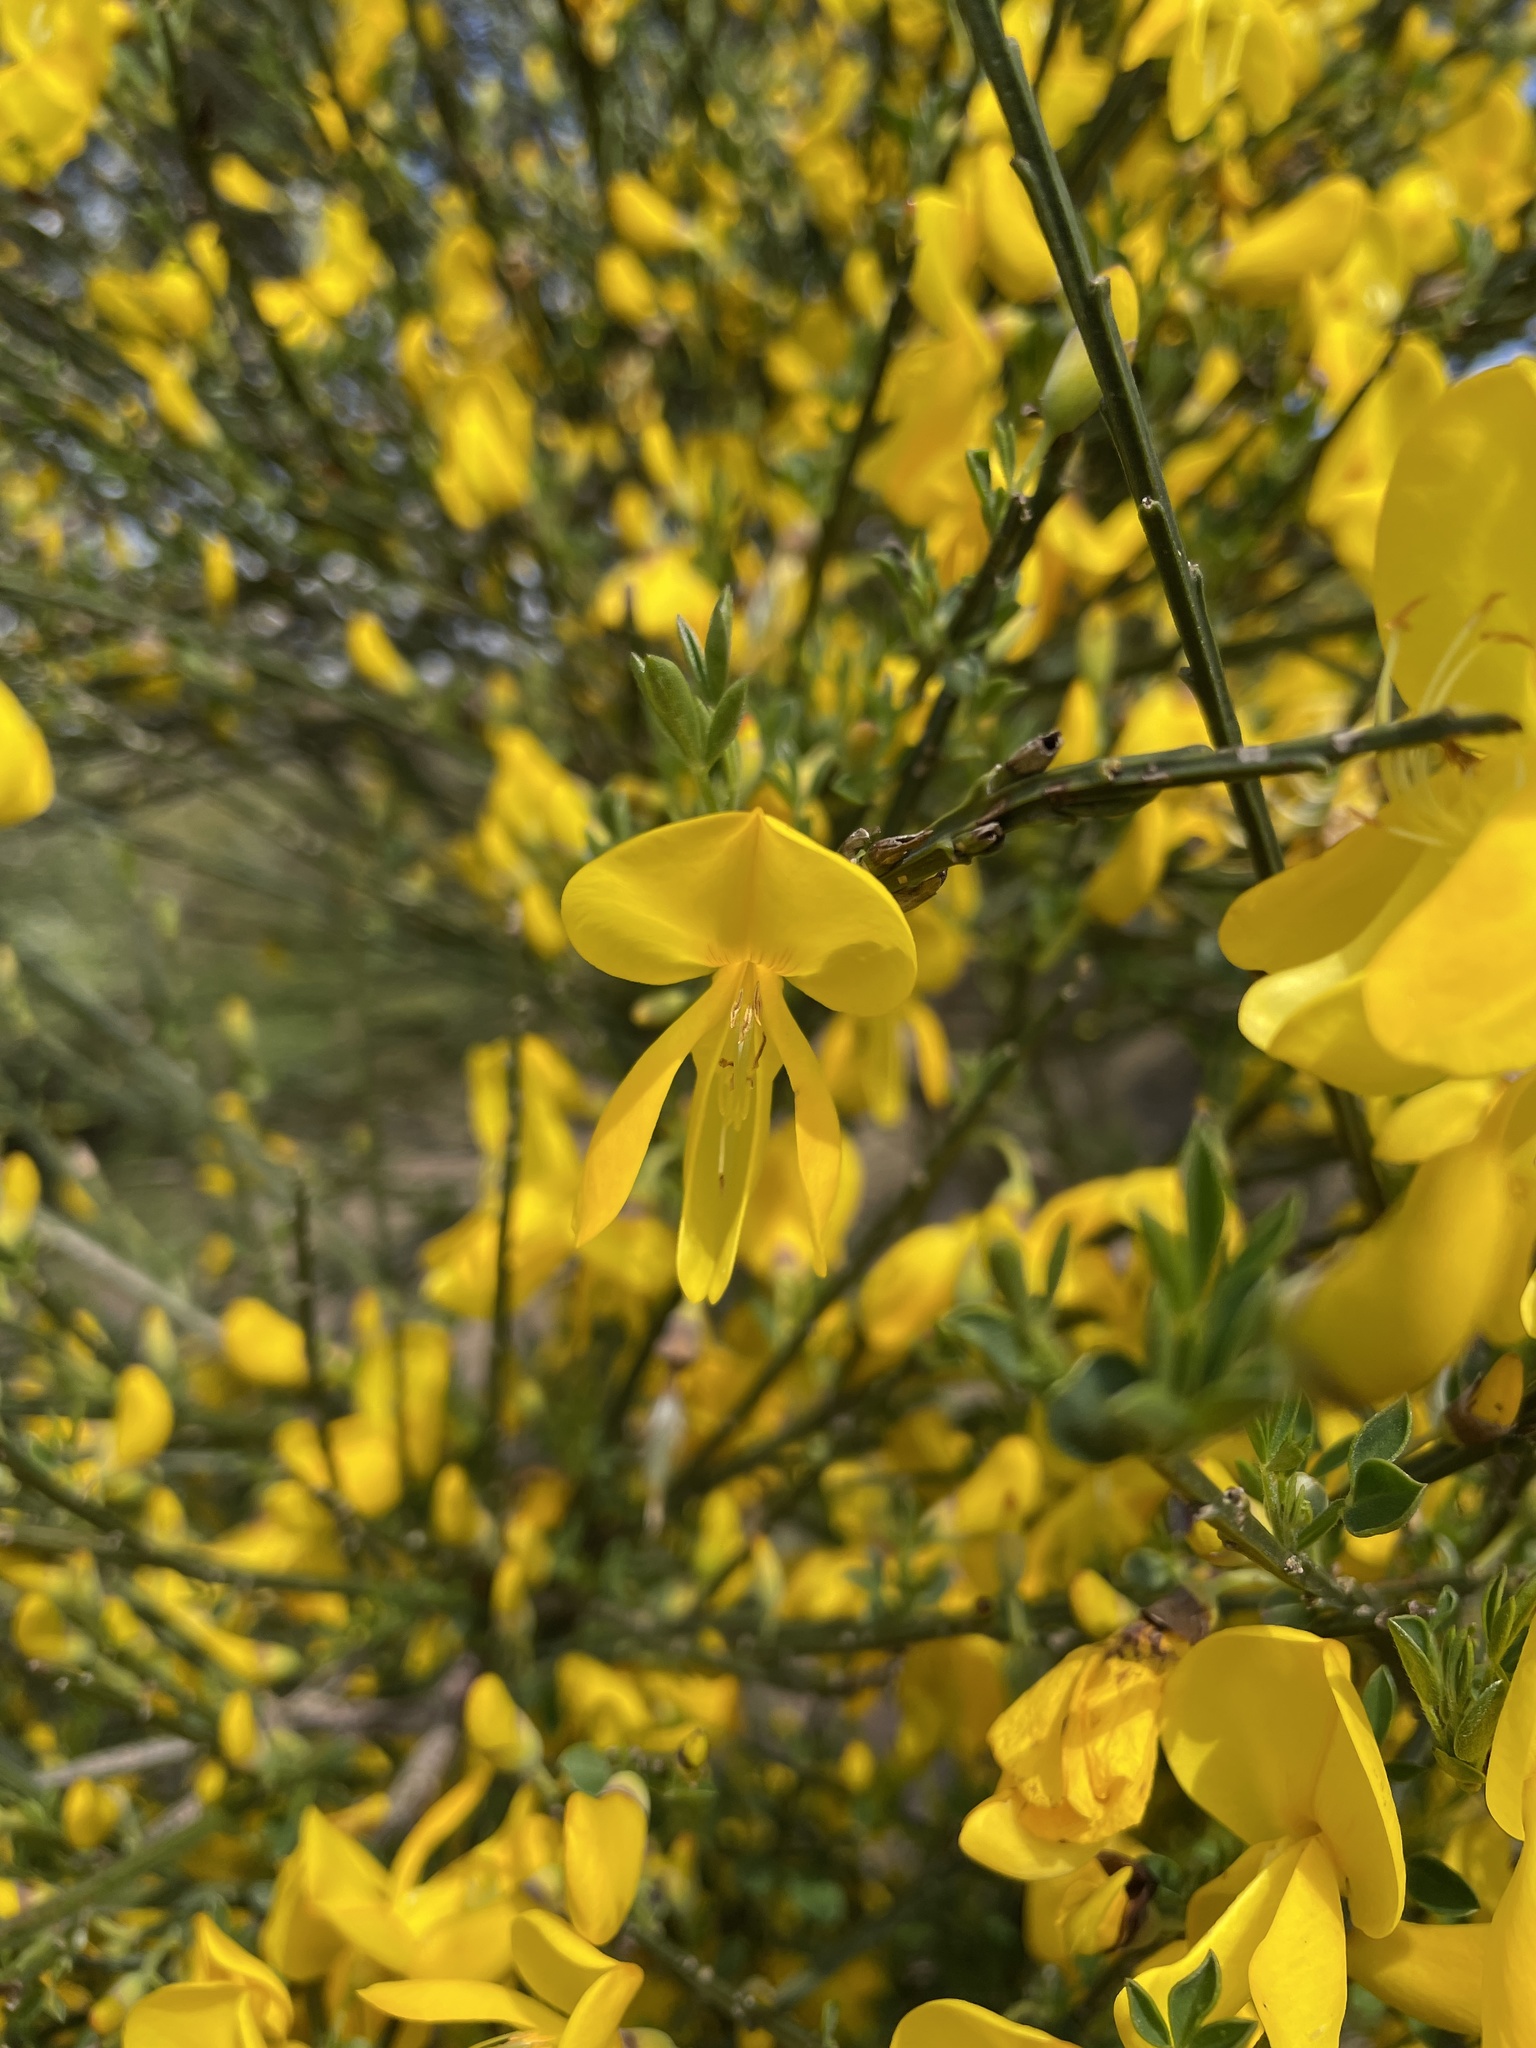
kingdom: Plantae
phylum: Tracheophyta
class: Magnoliopsida
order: Fabales
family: Fabaceae
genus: Cytisus
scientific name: Cytisus scoparius
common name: Scotch broom
